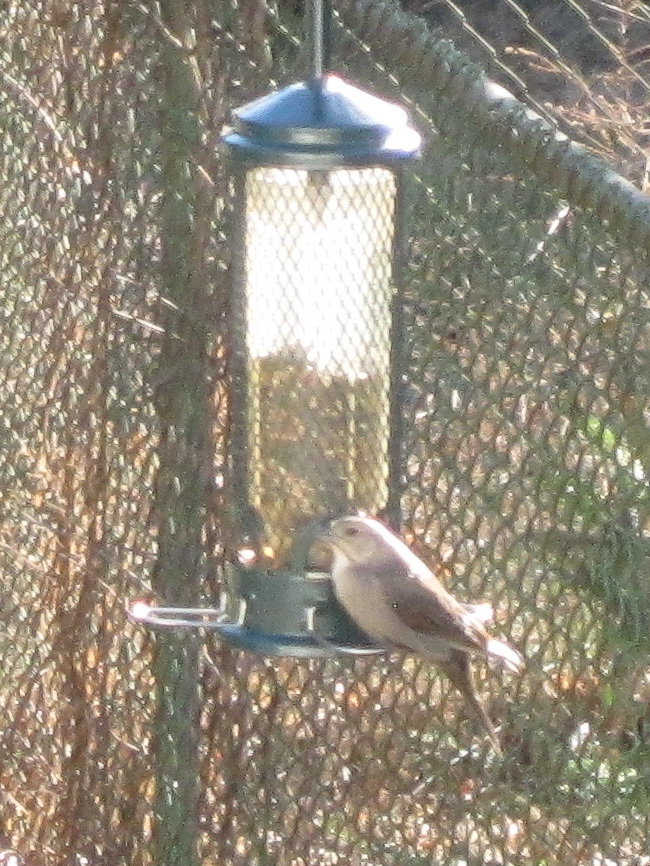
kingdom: Animalia
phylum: Chordata
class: Aves
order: Passeriformes
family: Icteridae
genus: Molothrus
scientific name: Molothrus ater
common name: Brown-headed cowbird
